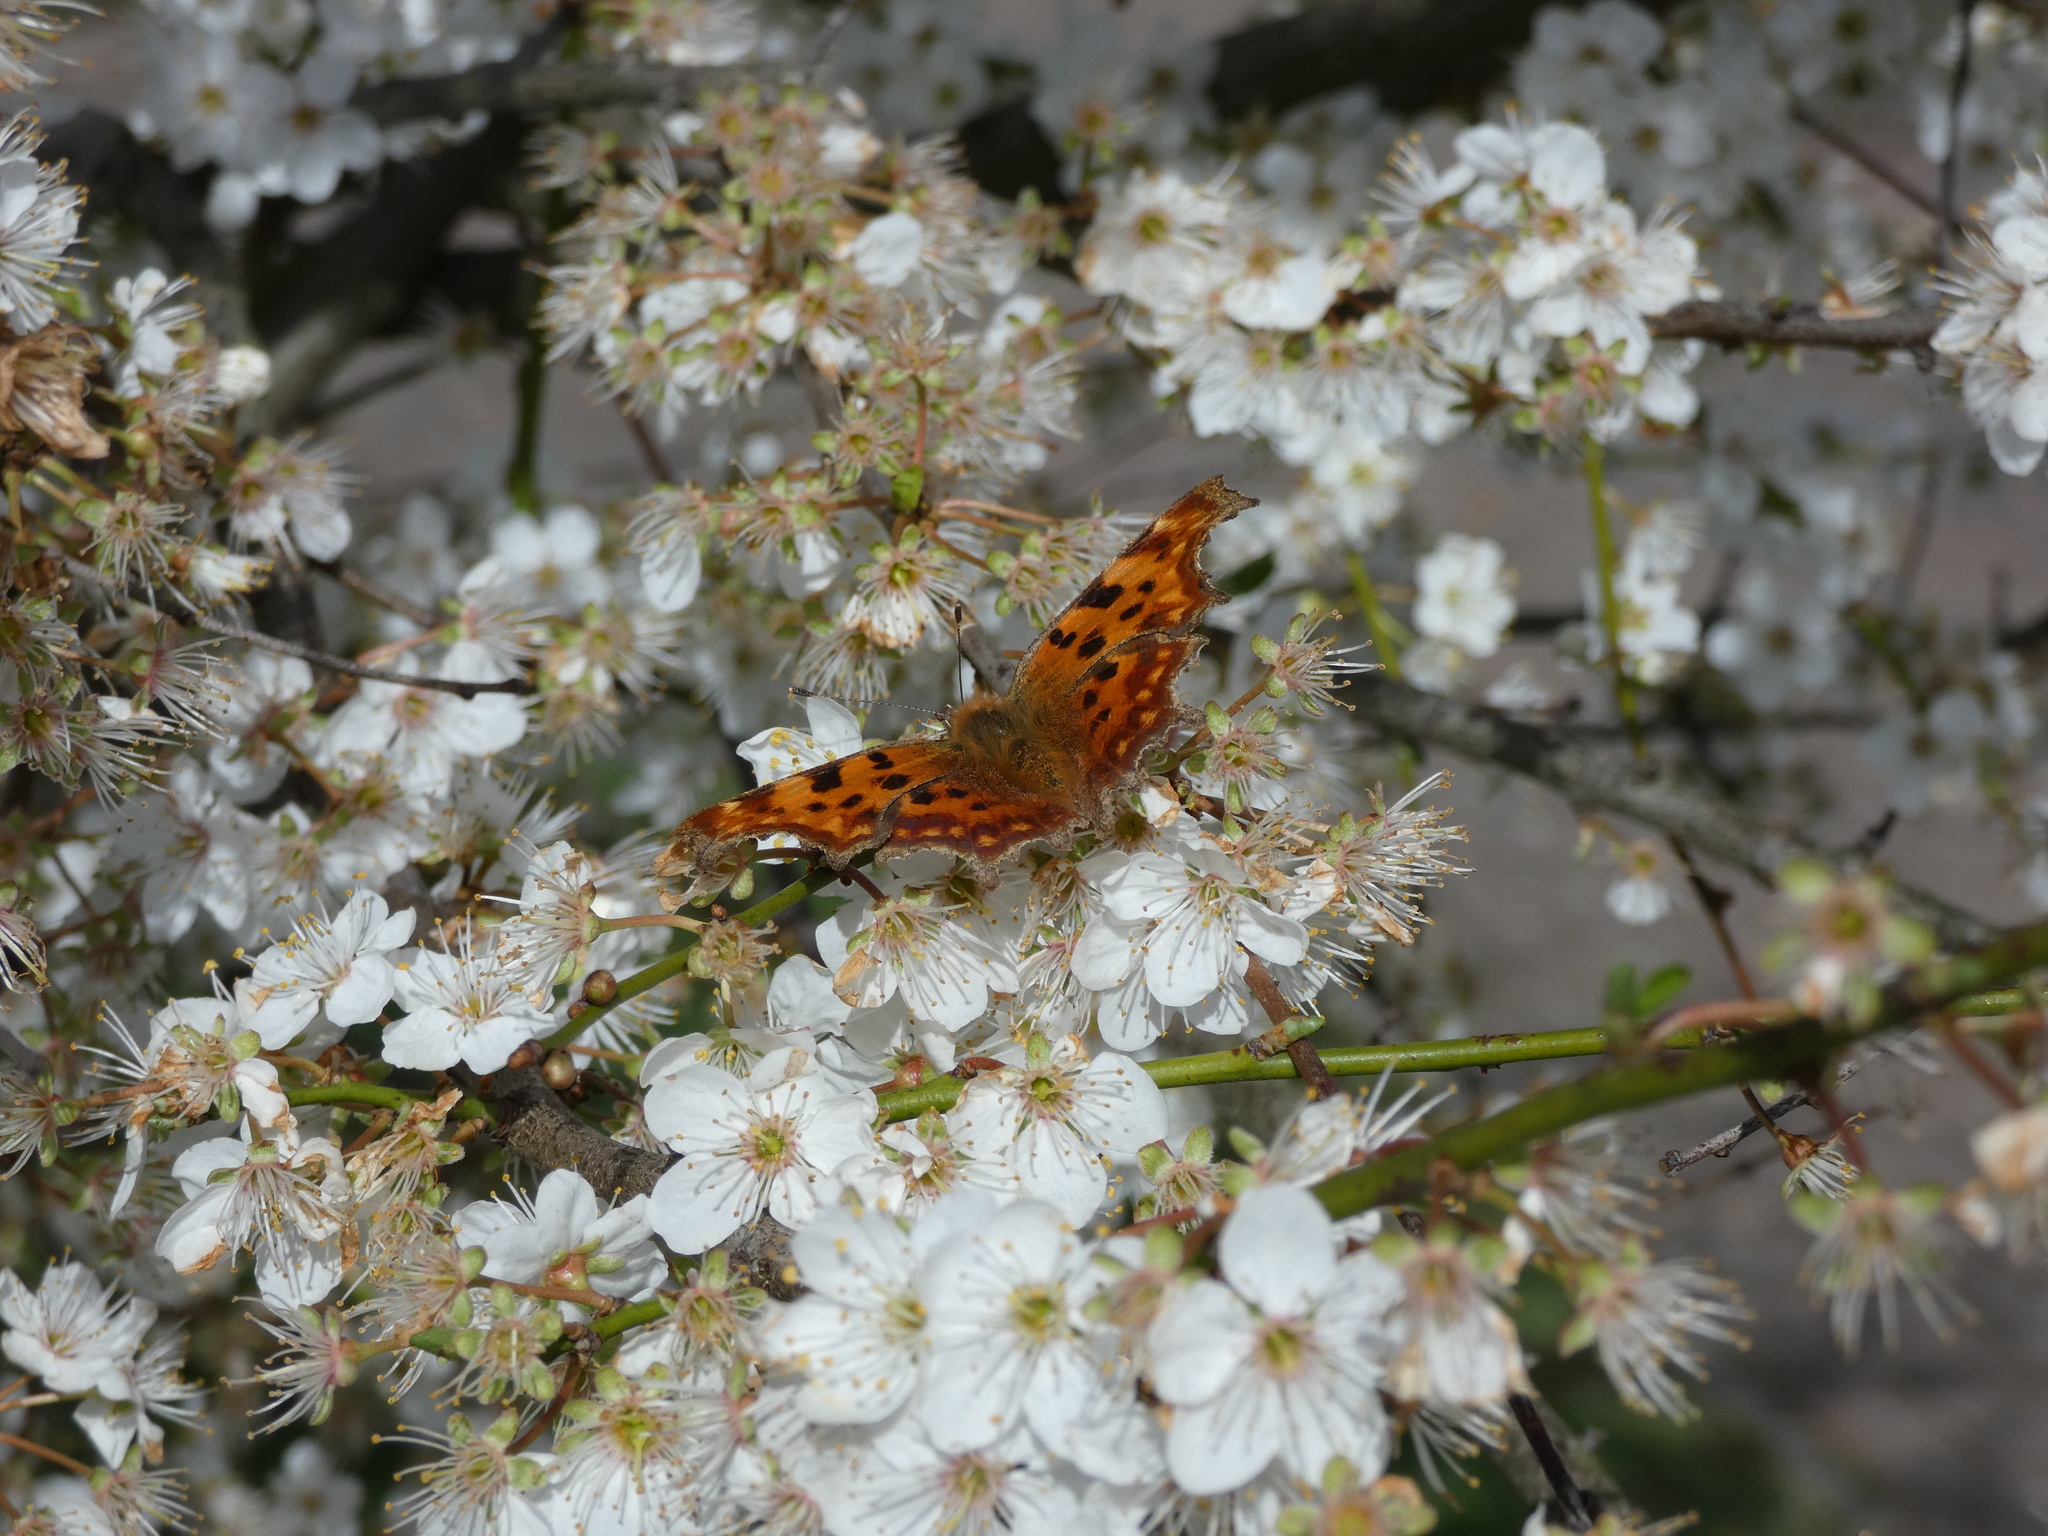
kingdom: Animalia
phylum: Arthropoda
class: Insecta
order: Lepidoptera
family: Nymphalidae
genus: Polygonia
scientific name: Polygonia c-album
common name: Comma
